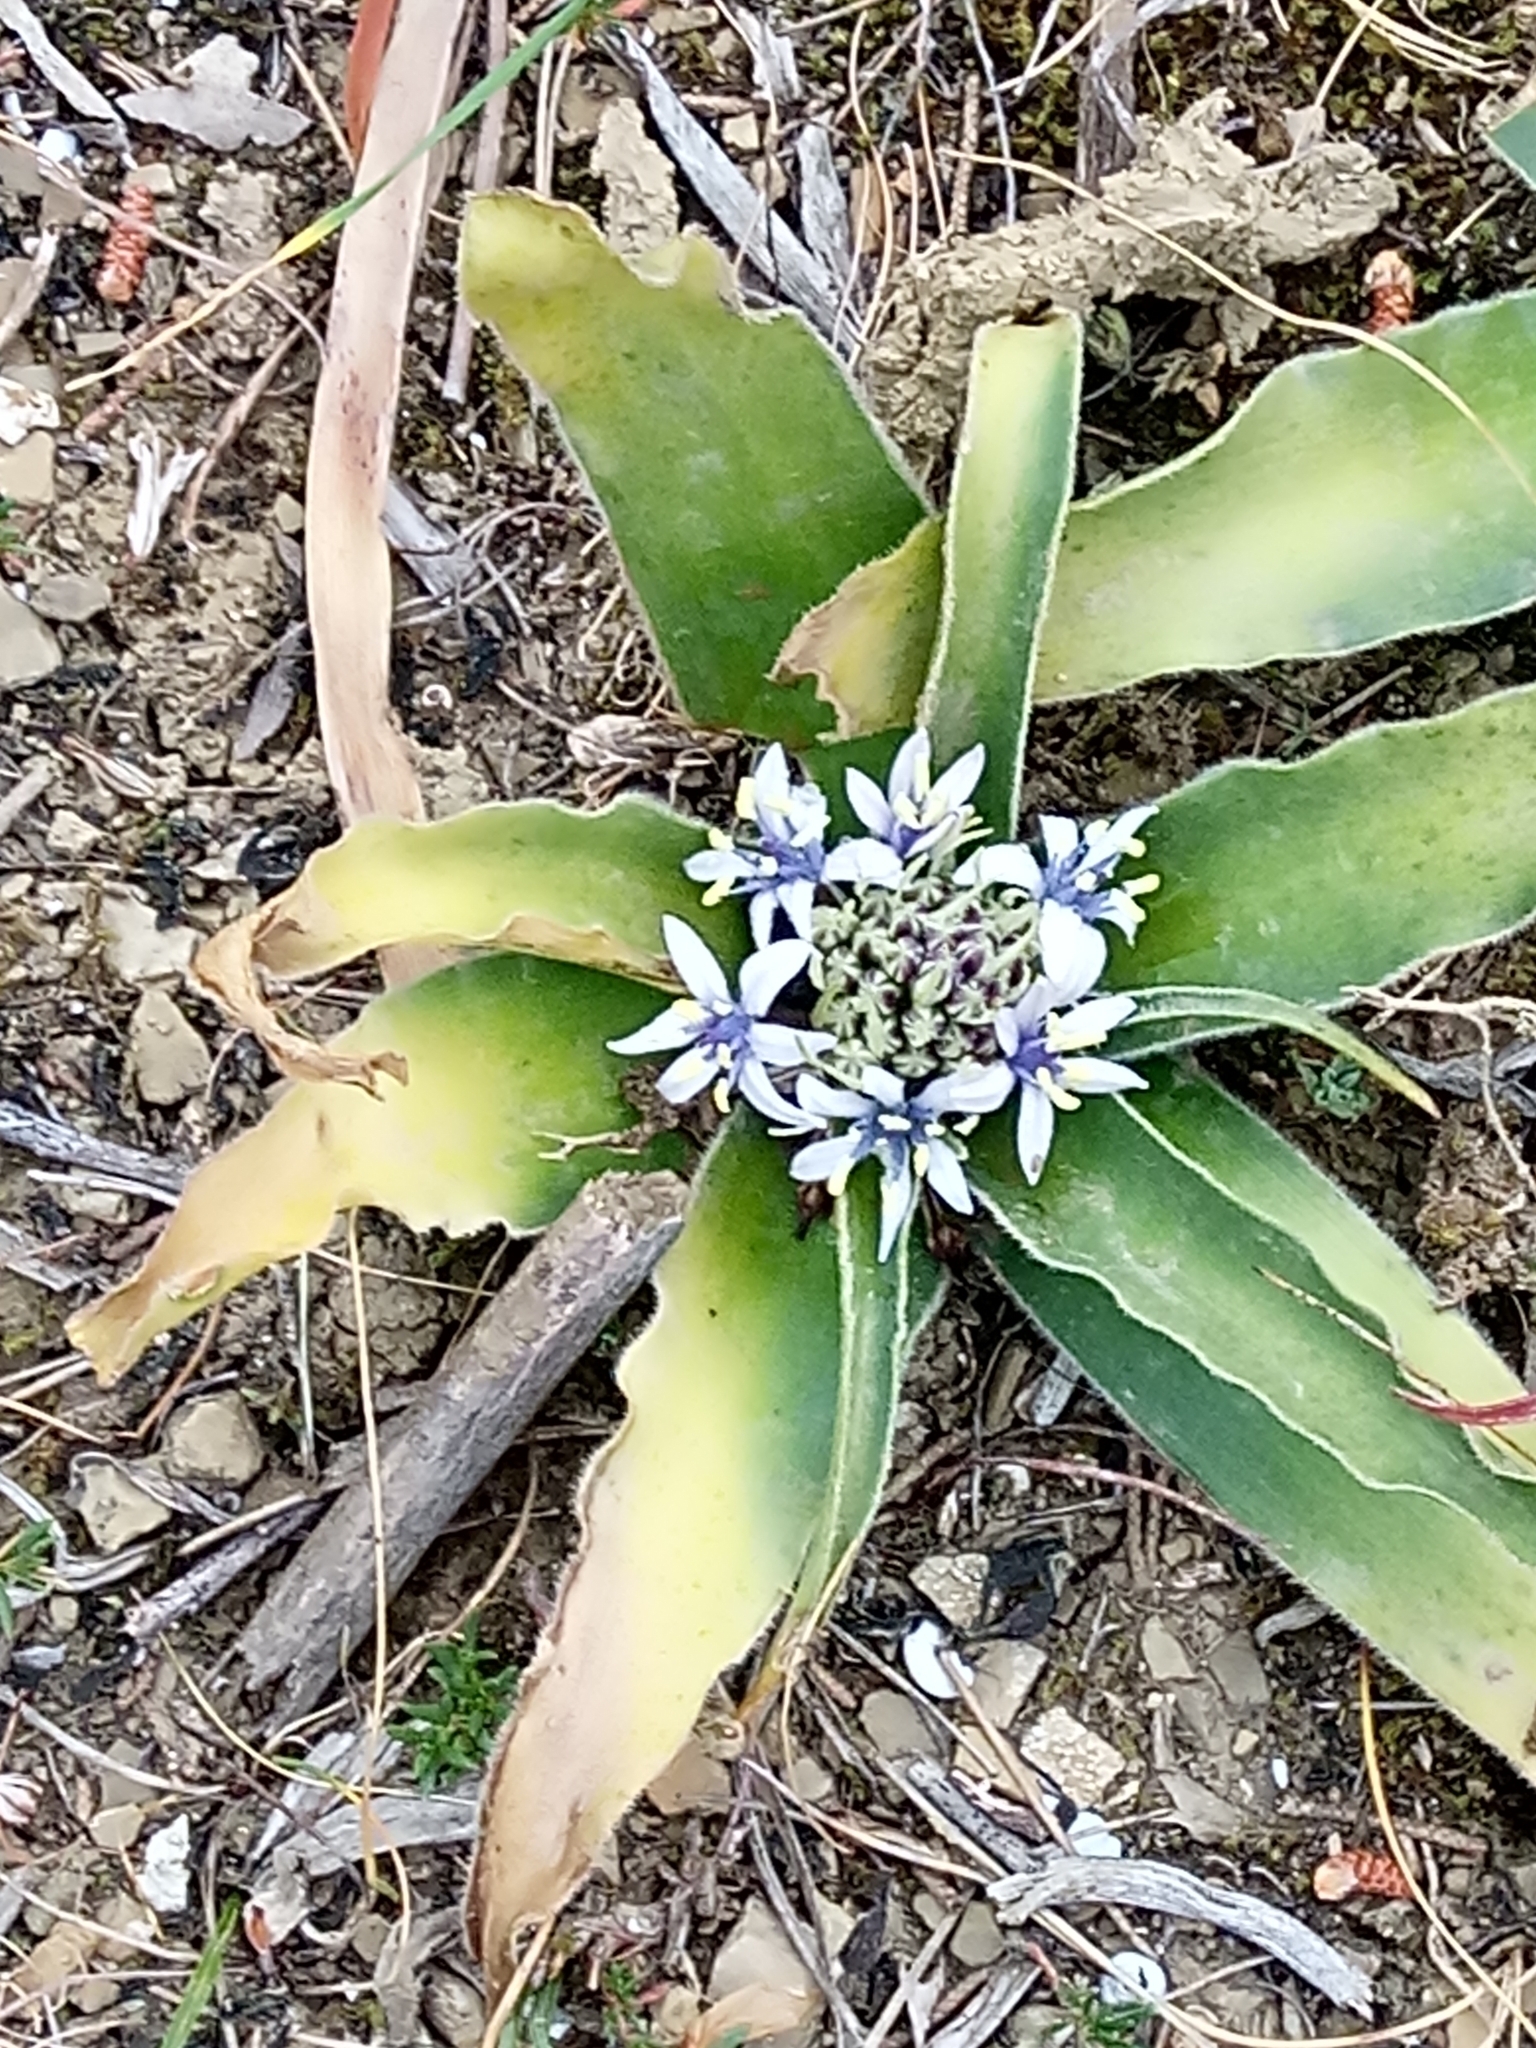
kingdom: Plantae
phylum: Tracheophyta
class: Liliopsida
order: Asparagales
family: Asparagaceae
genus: Scilla
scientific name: Scilla peruviana
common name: Portuguese squill
